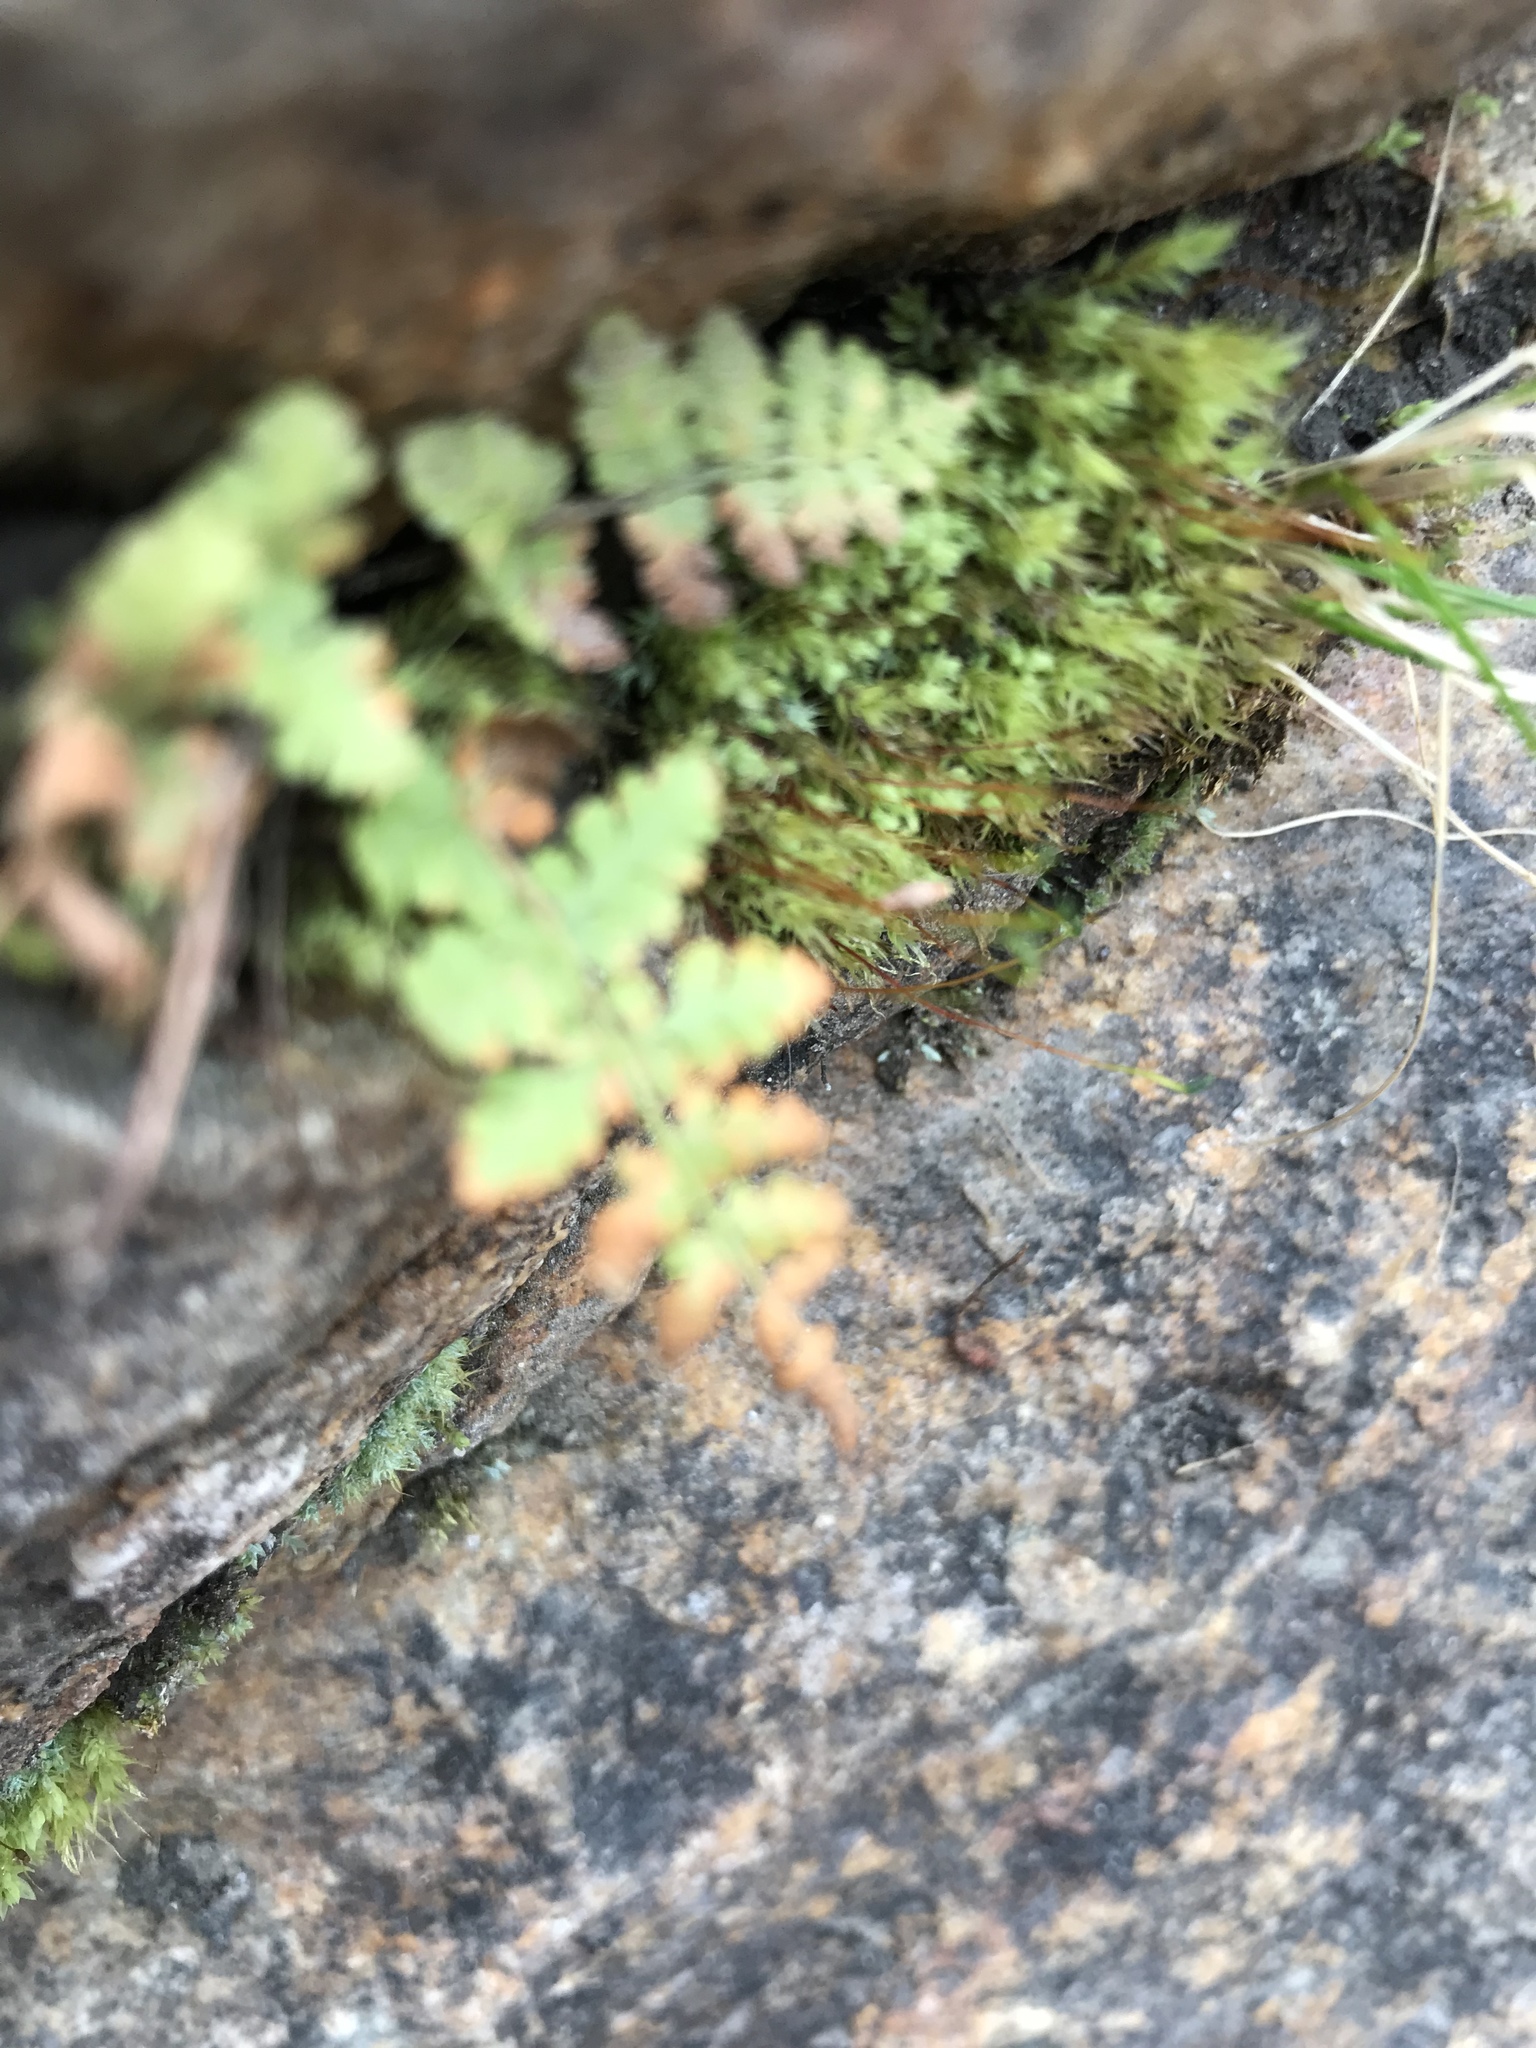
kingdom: Plantae
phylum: Tracheophyta
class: Polypodiopsida
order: Polypodiales
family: Cystopteridaceae
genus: Cystopteris
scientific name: Cystopteris fragilis
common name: Brittle bladder fern
